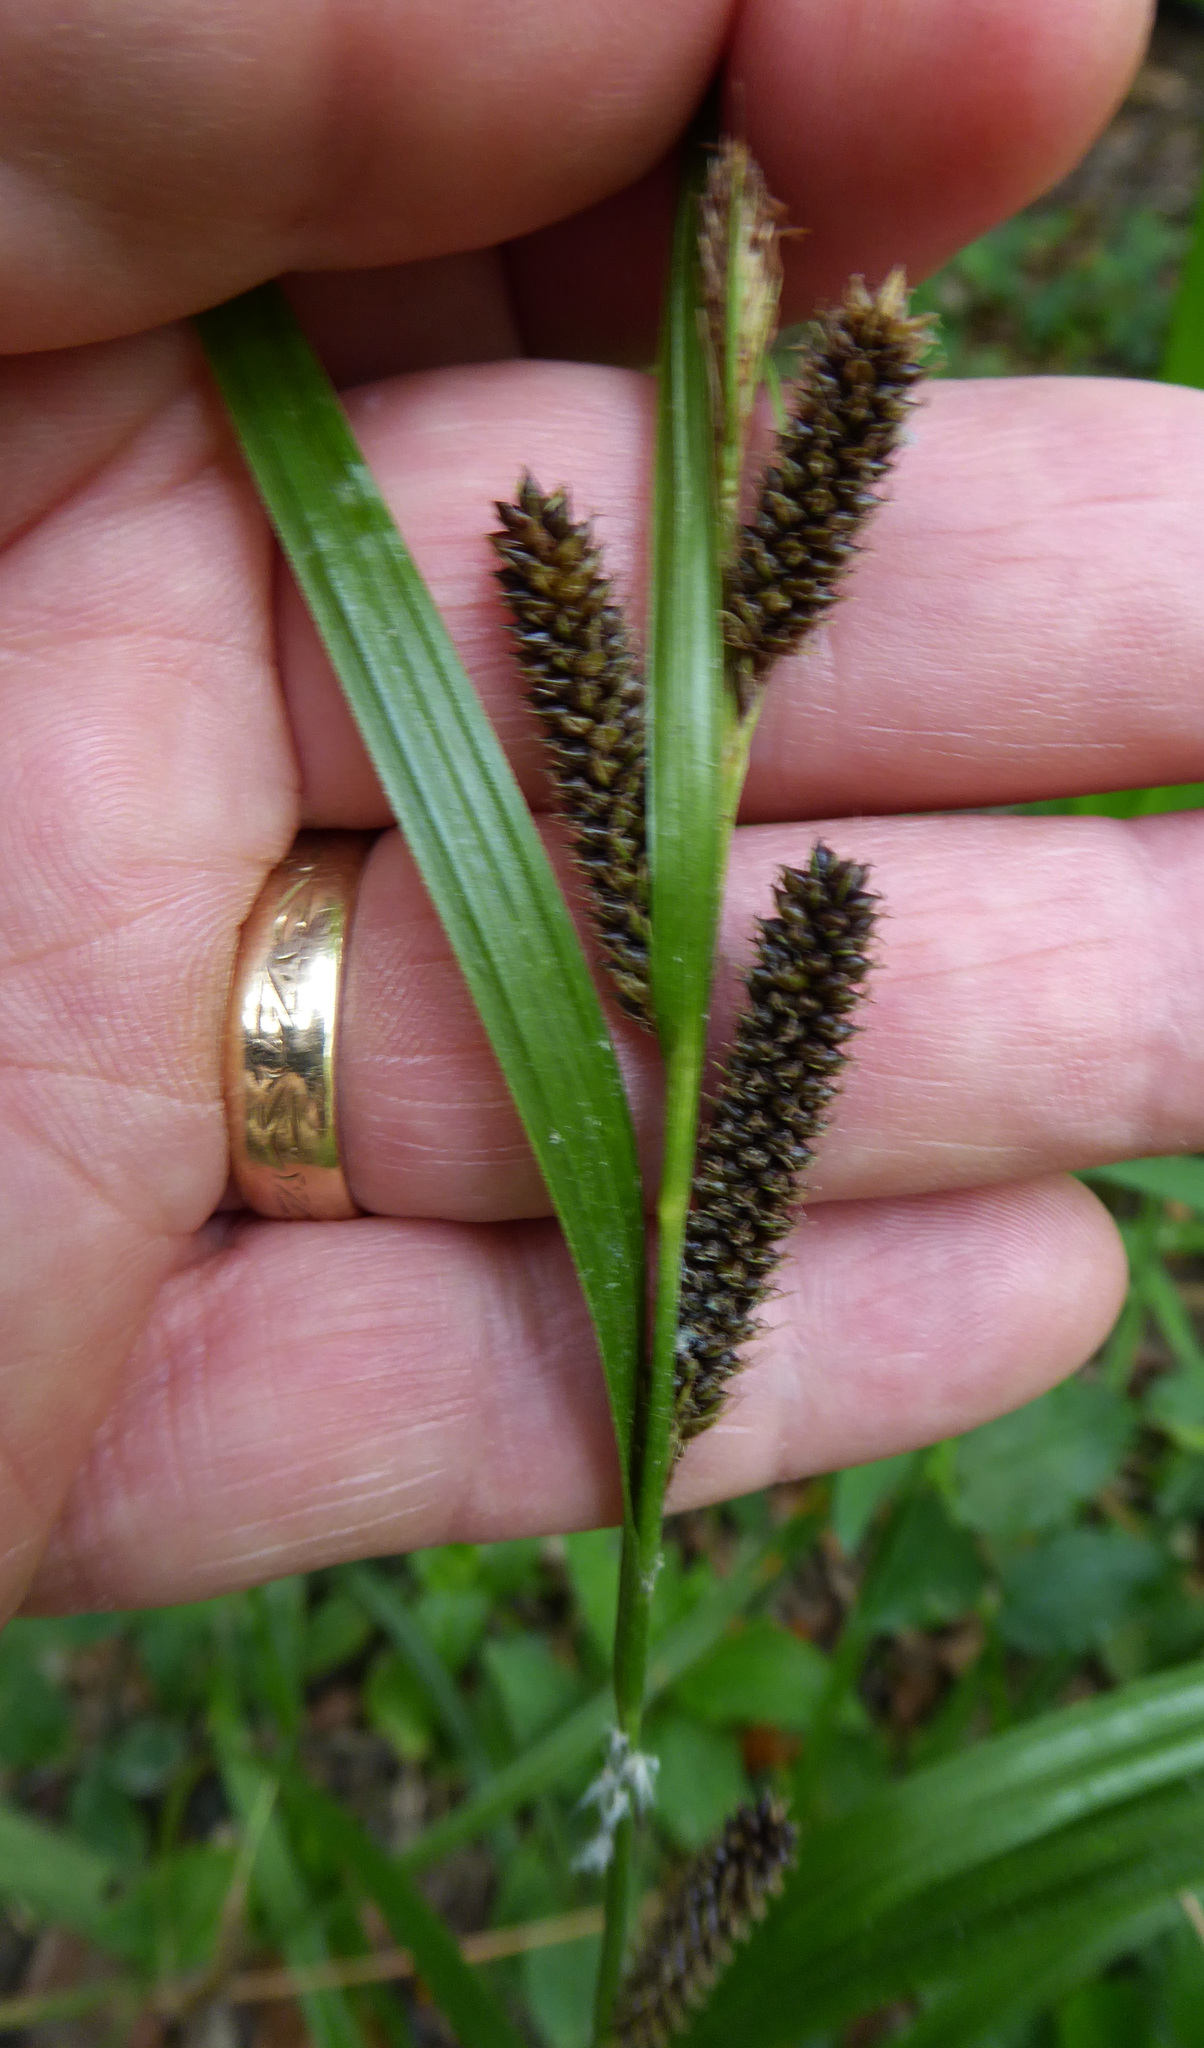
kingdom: Plantae
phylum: Tracheophyta
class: Liliopsida
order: Poales
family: Cyperaceae
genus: Carex
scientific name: Carex lambertiana
